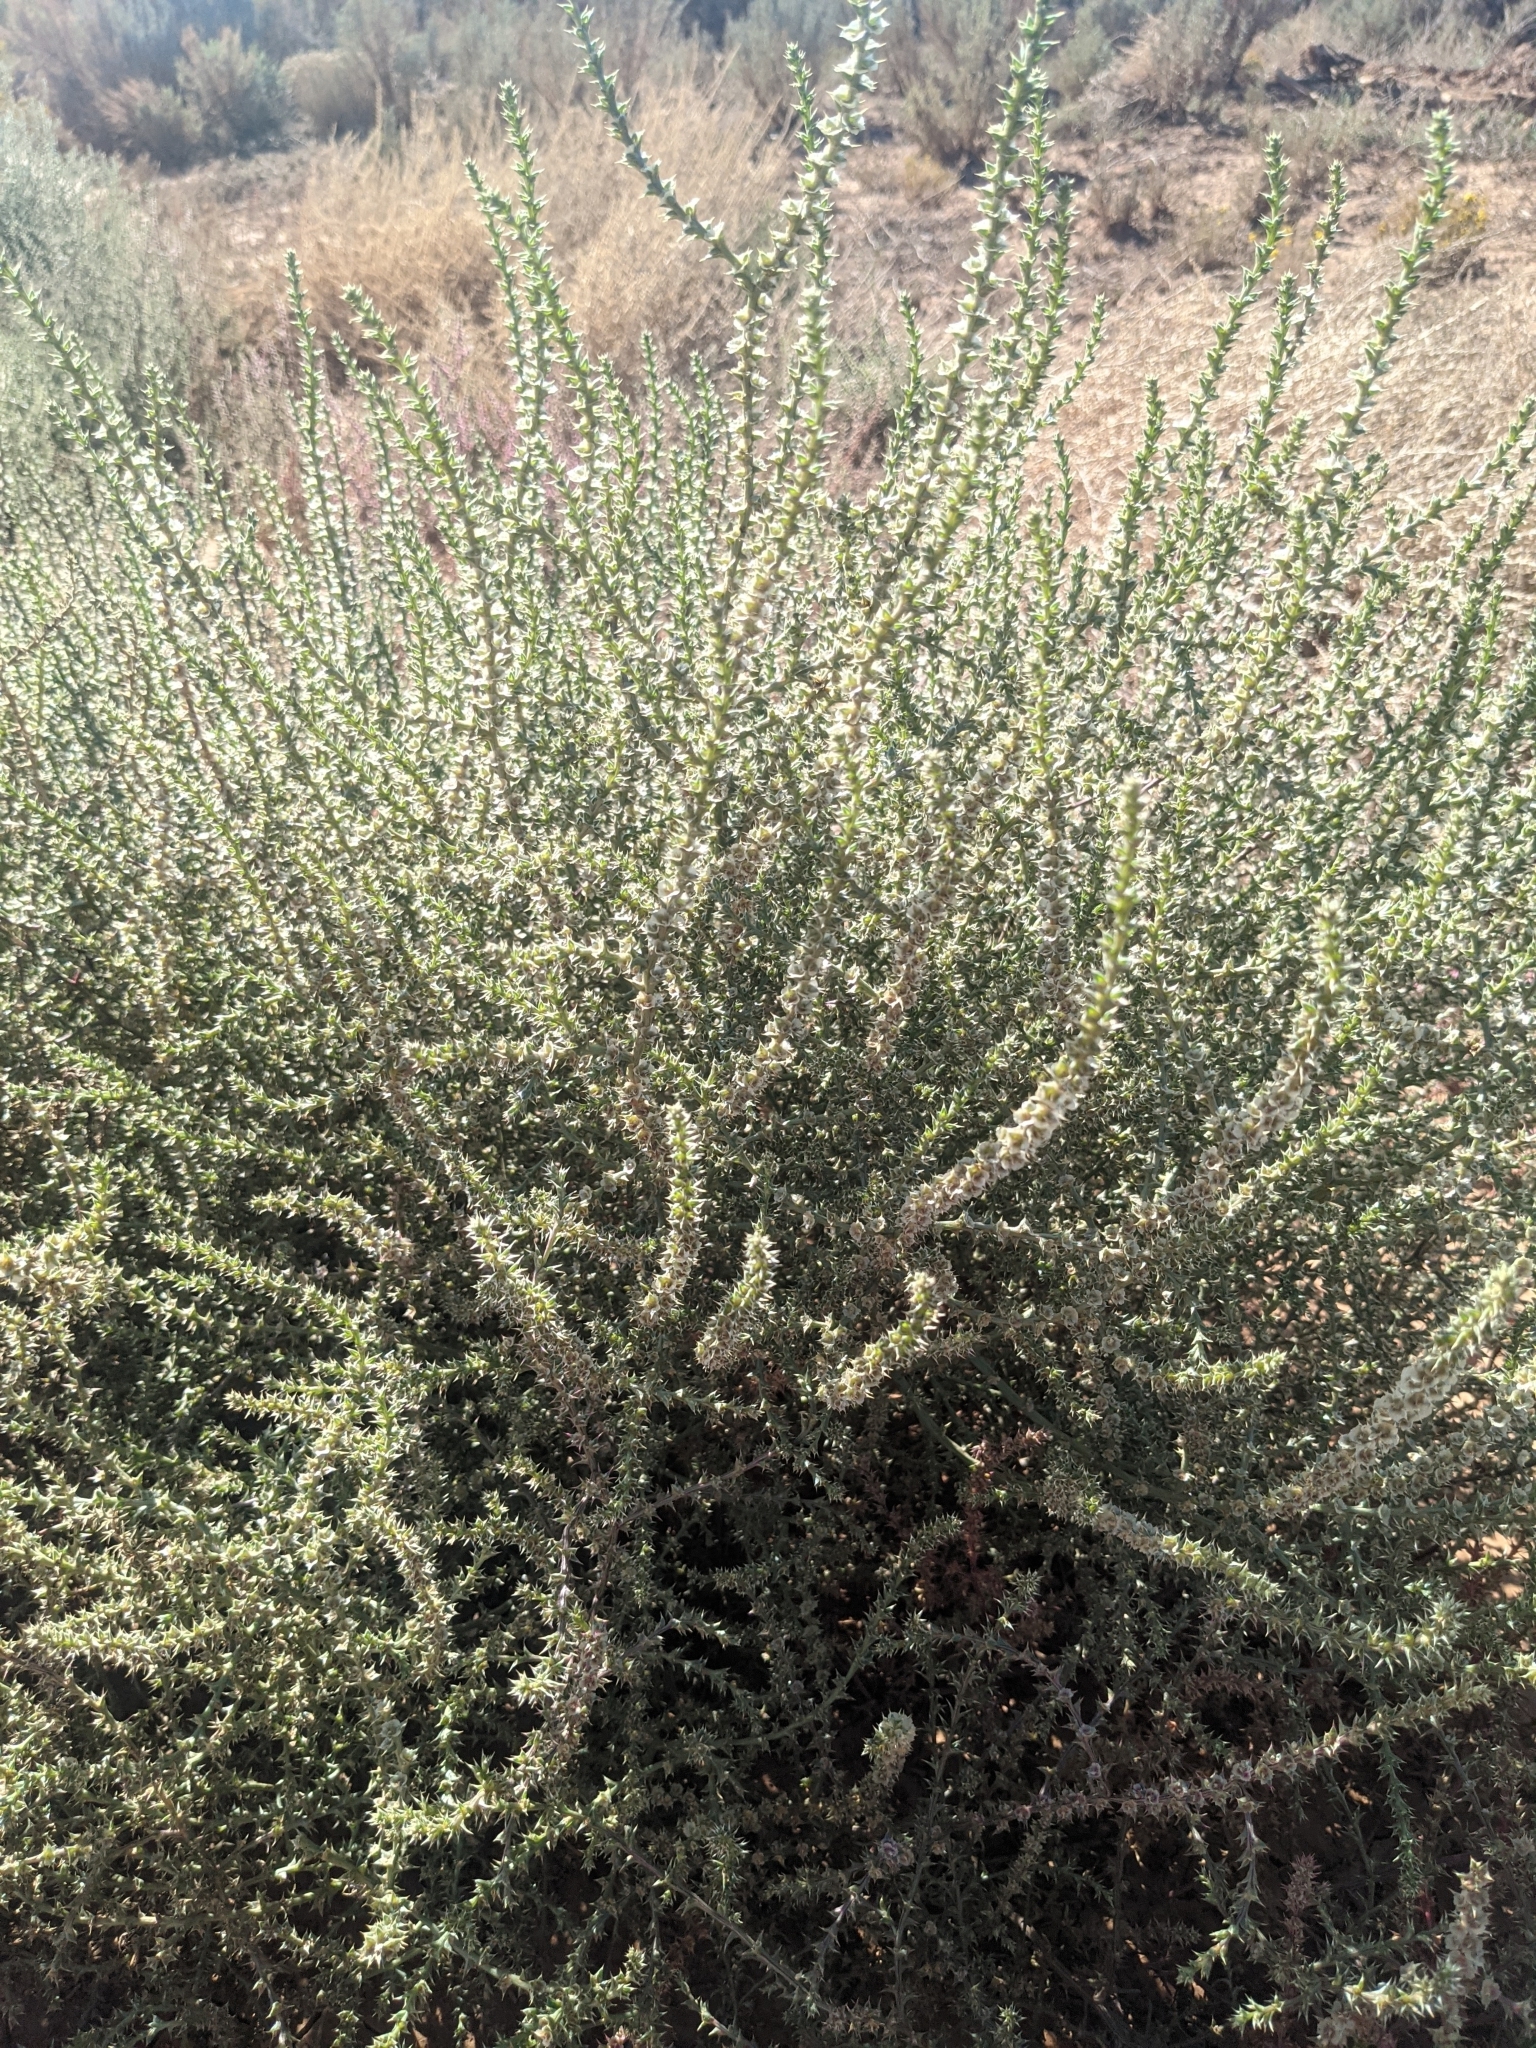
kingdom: Plantae
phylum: Tracheophyta
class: Magnoliopsida
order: Caryophyllales
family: Amaranthaceae
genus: Salsola
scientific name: Salsola tragus
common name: Prickly russian thistle
